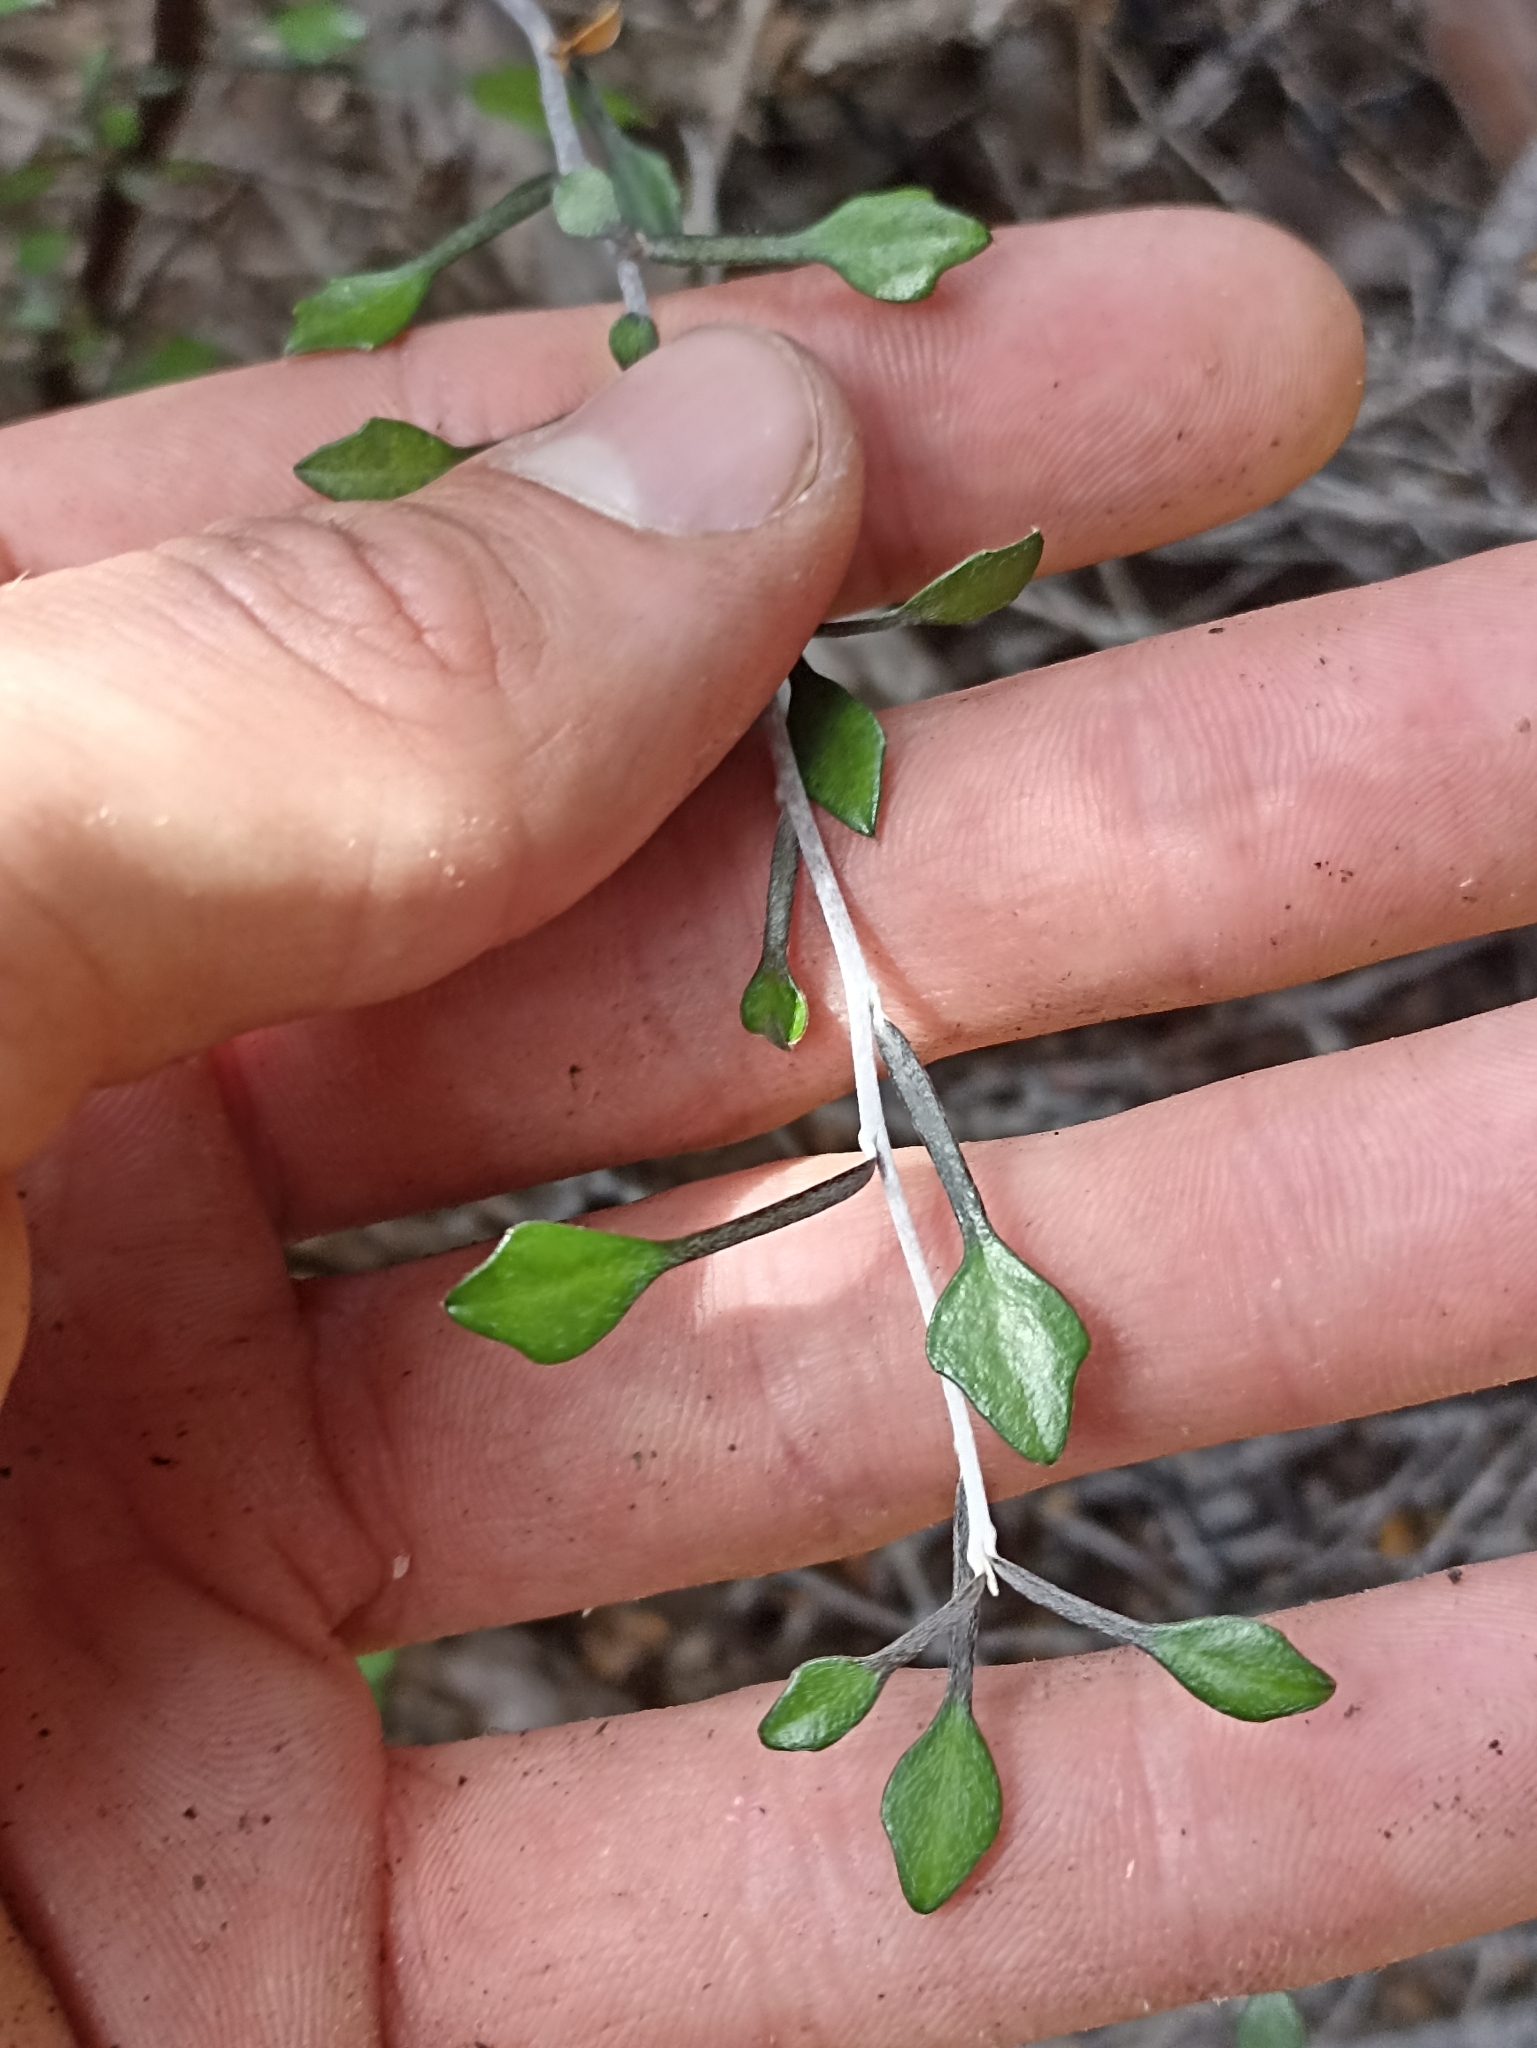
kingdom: Plantae
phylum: Tracheophyta
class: Magnoliopsida
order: Asterales
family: Argophyllaceae
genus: Corokia
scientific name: Corokia cotoneaster
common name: Wire nettingbush
